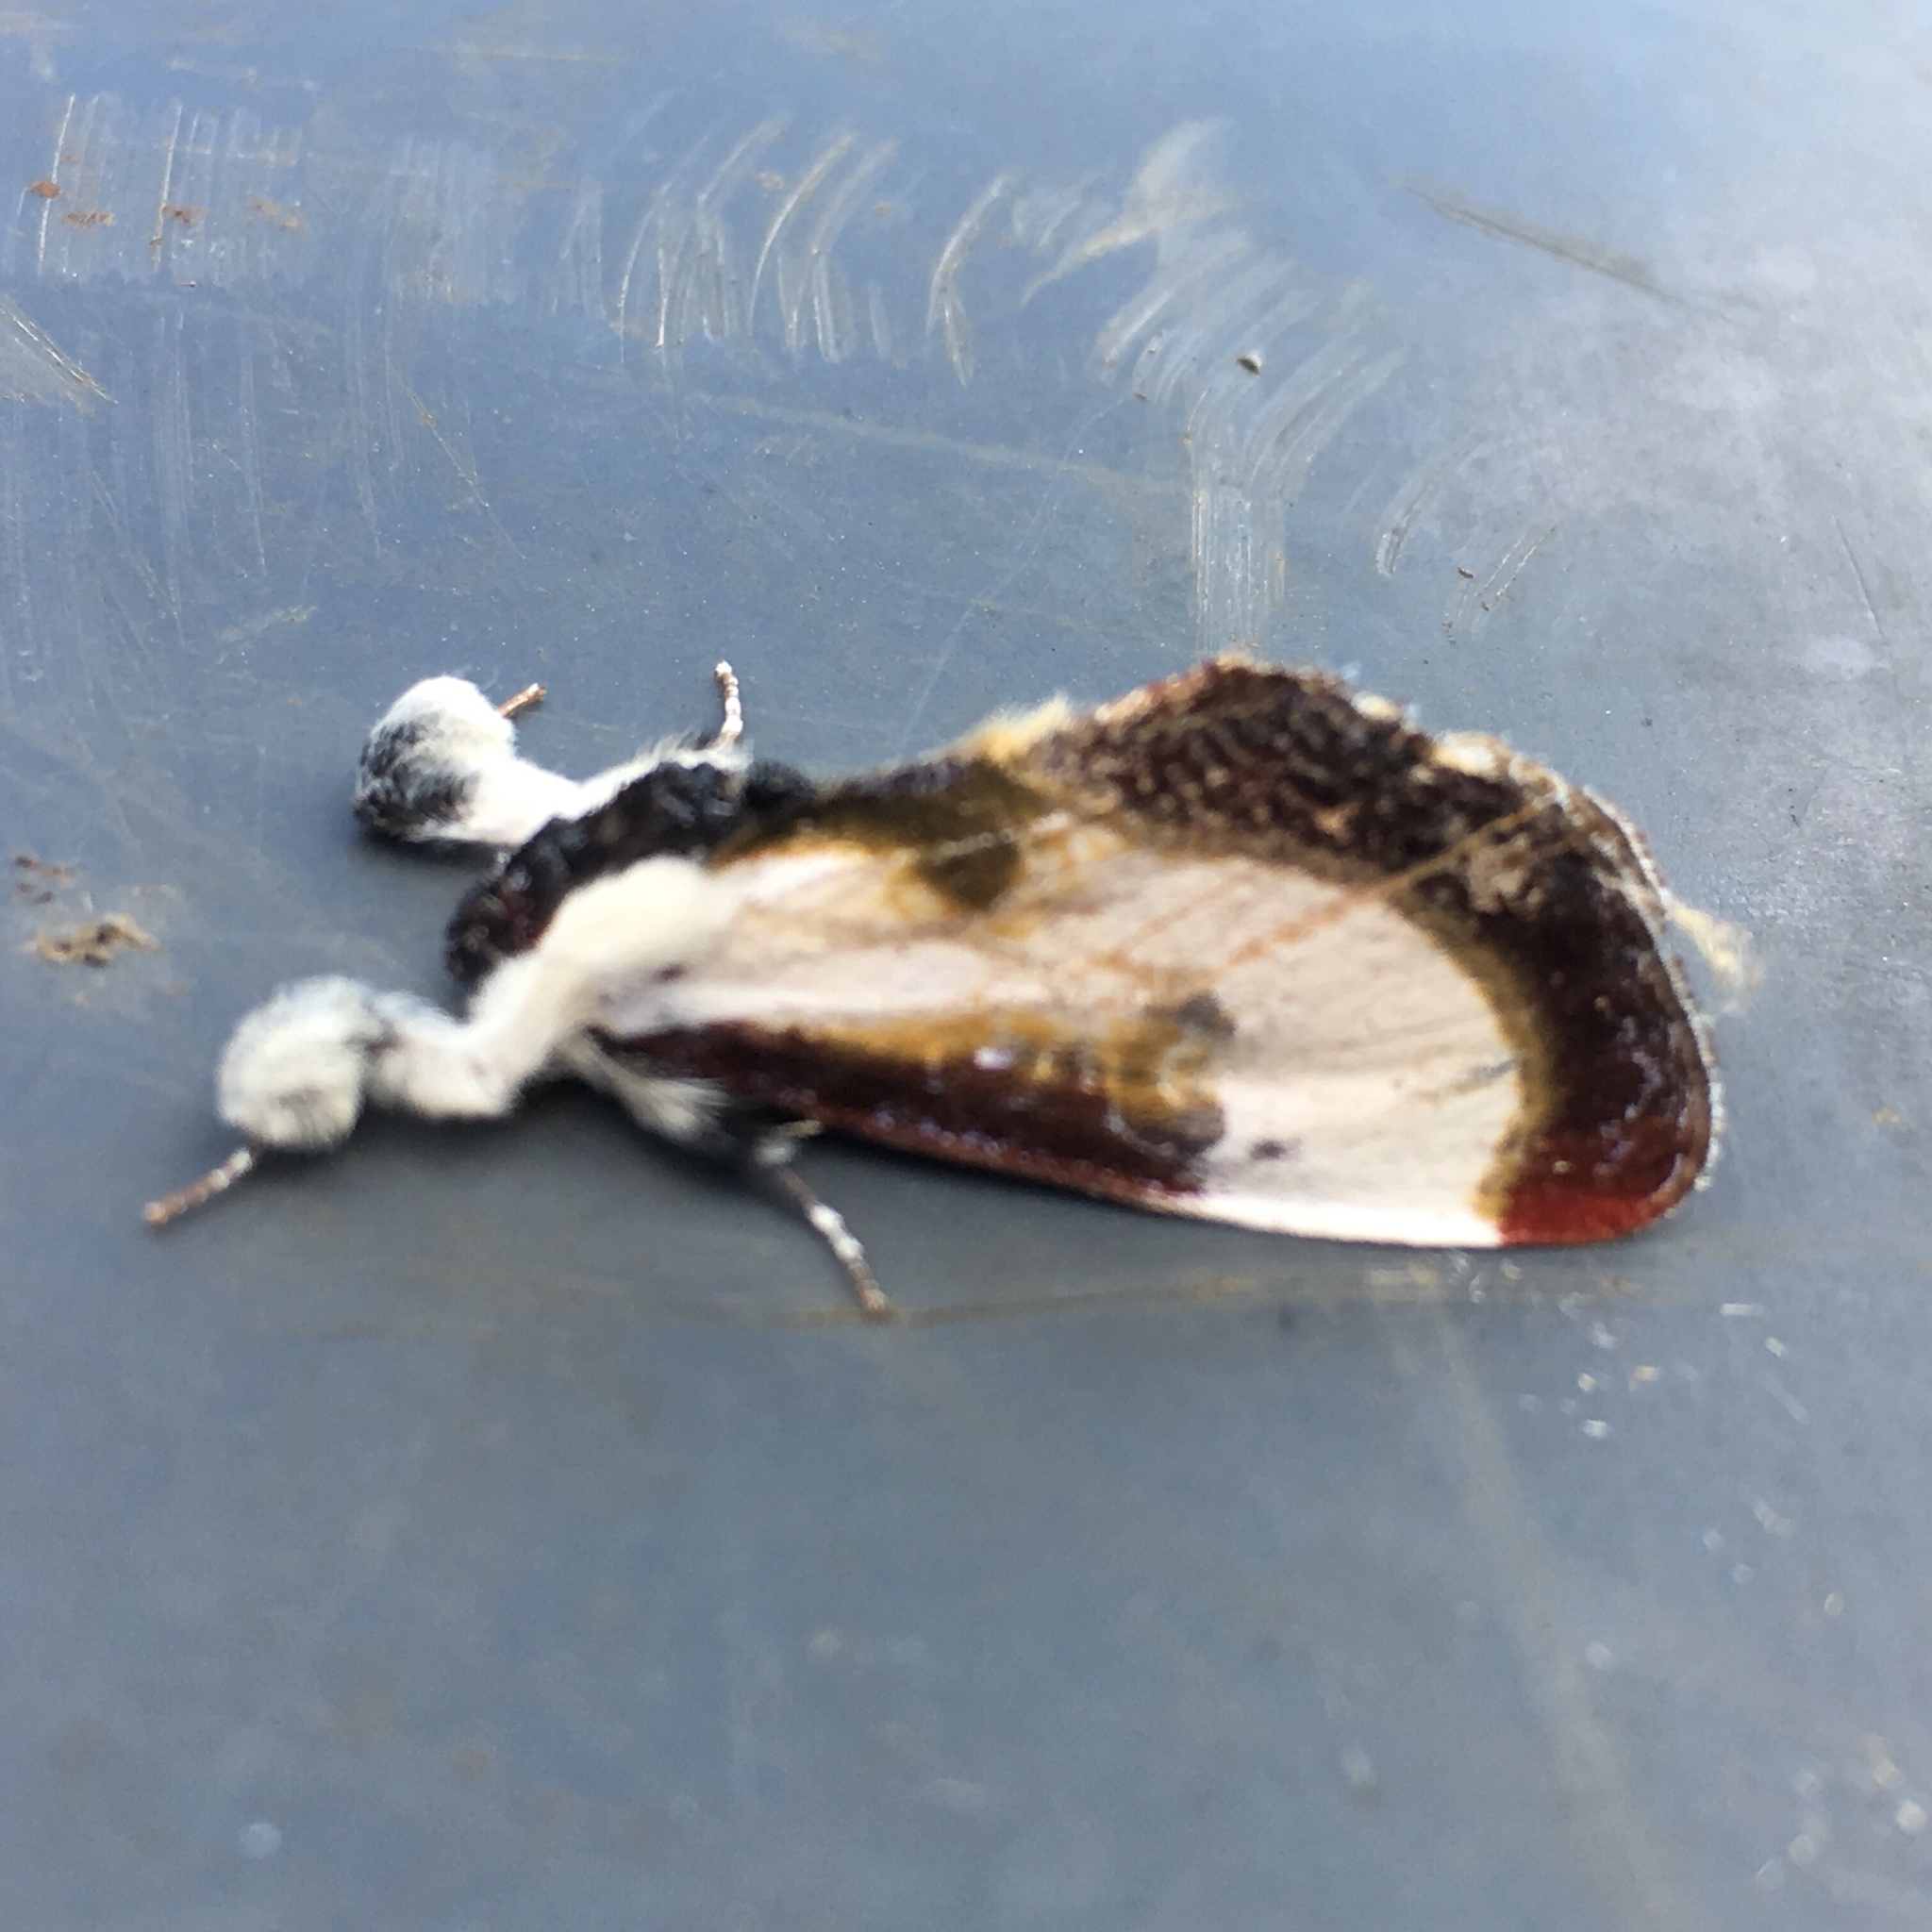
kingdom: Animalia
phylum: Arthropoda
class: Insecta
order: Lepidoptera
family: Noctuidae
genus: Eudryas
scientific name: Eudryas grata
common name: Beautiful wood-nymph
